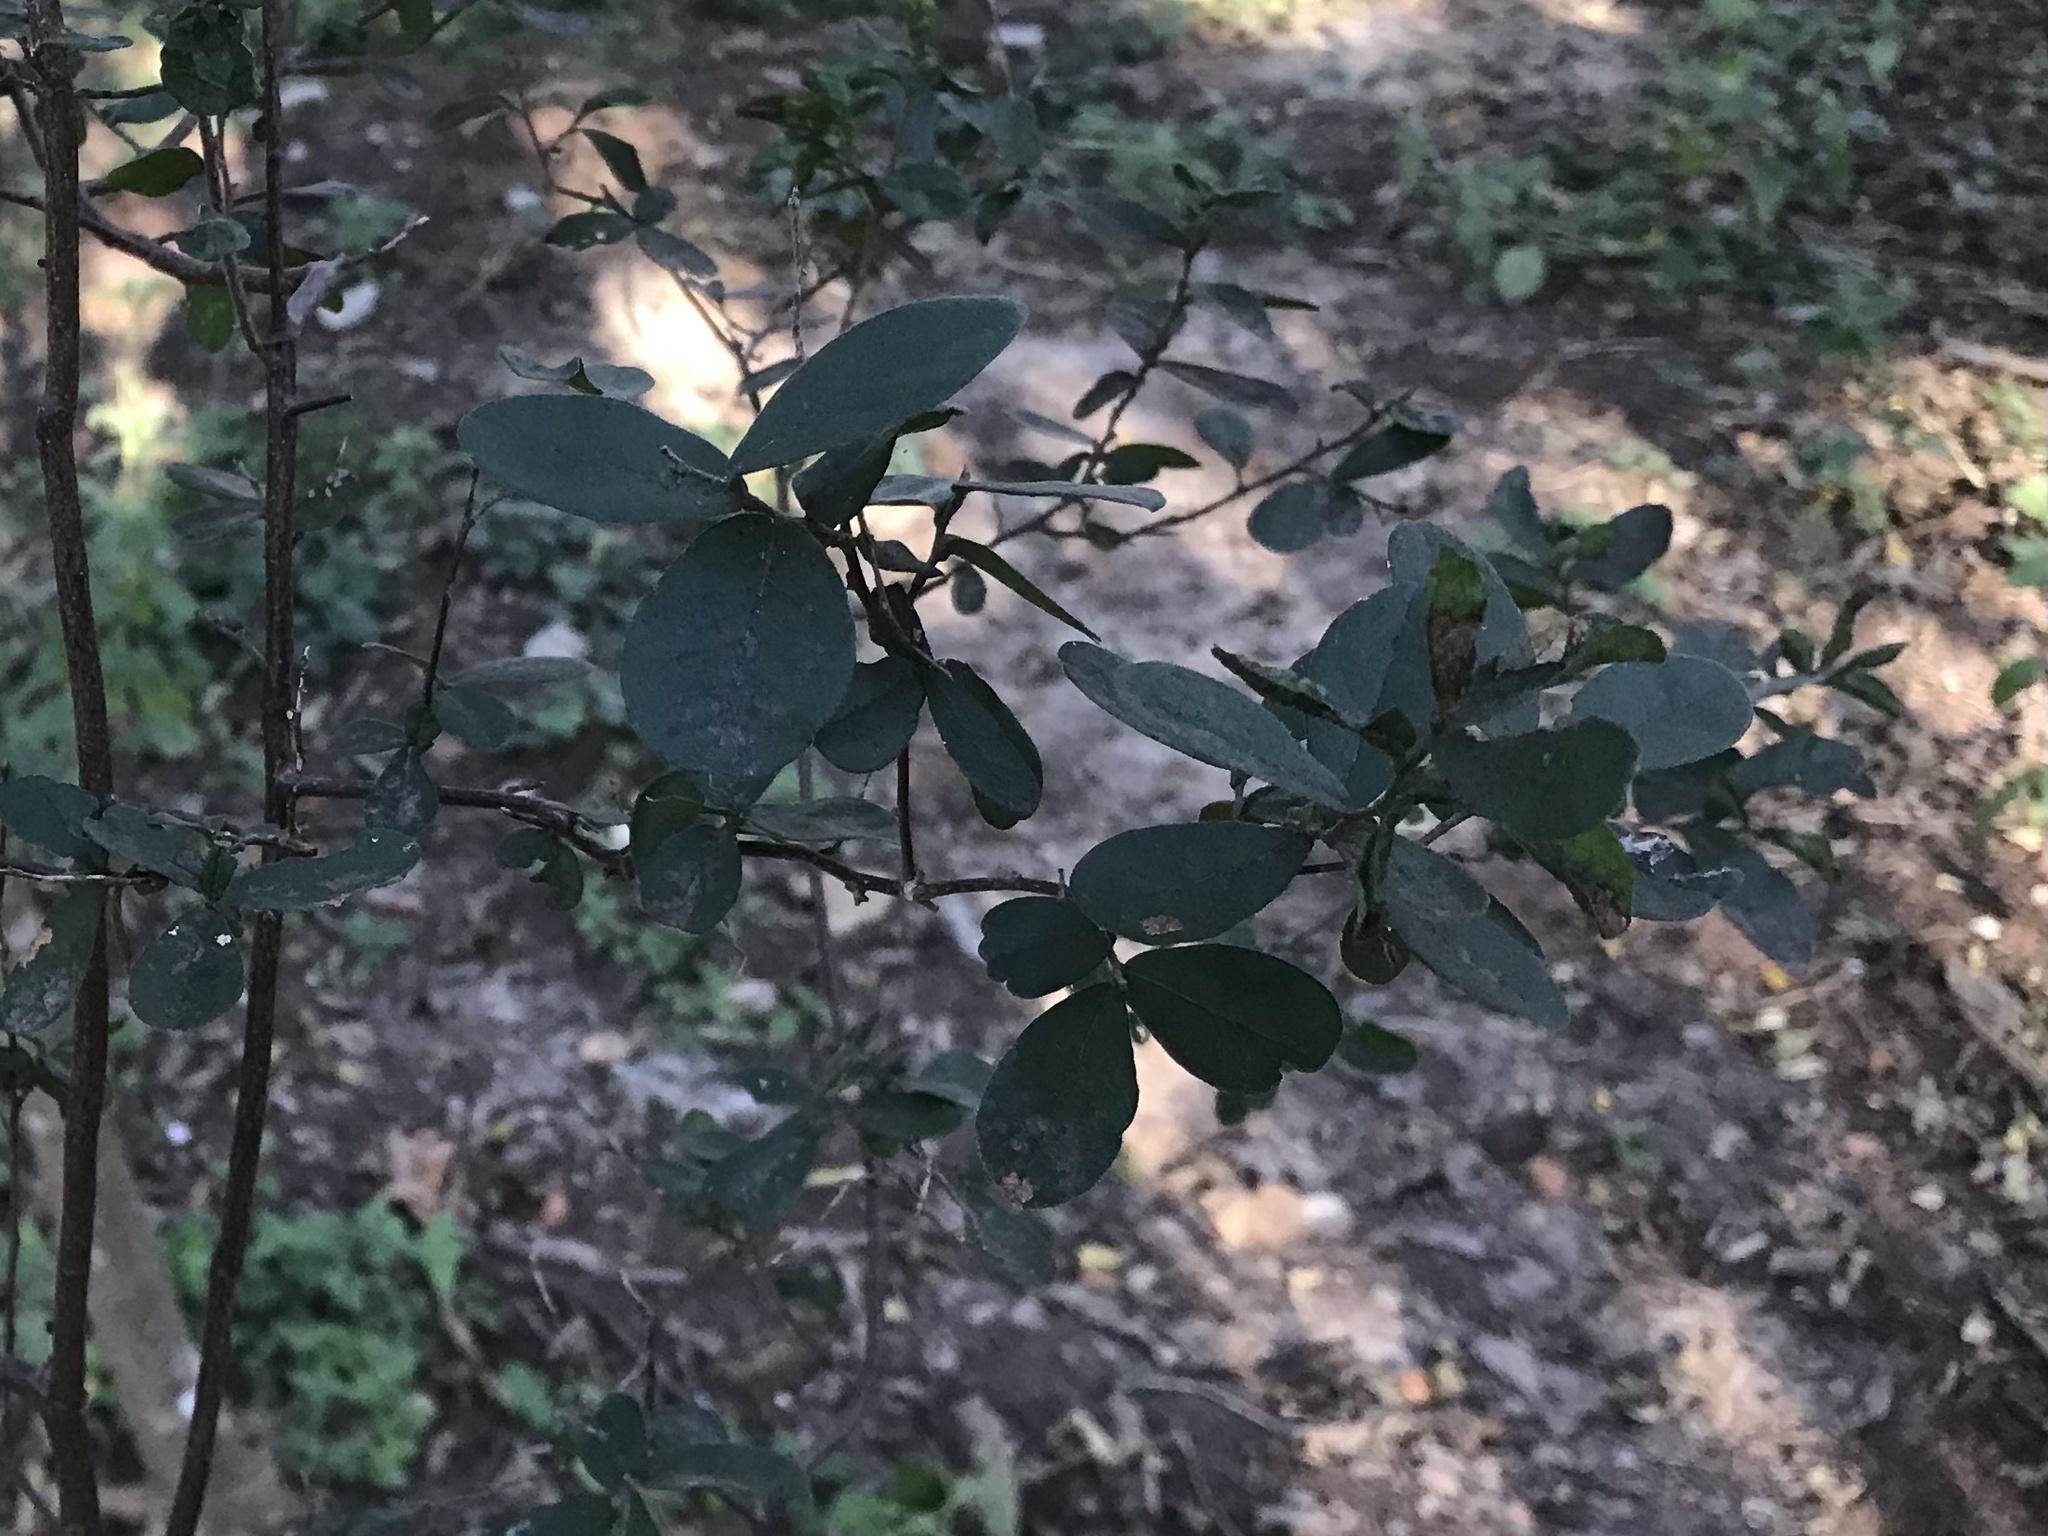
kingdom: Plantae
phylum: Tracheophyta
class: Magnoliopsida
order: Ericales
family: Ebenaceae
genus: Diospyros
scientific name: Diospyros texana
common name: Texas persimmon
